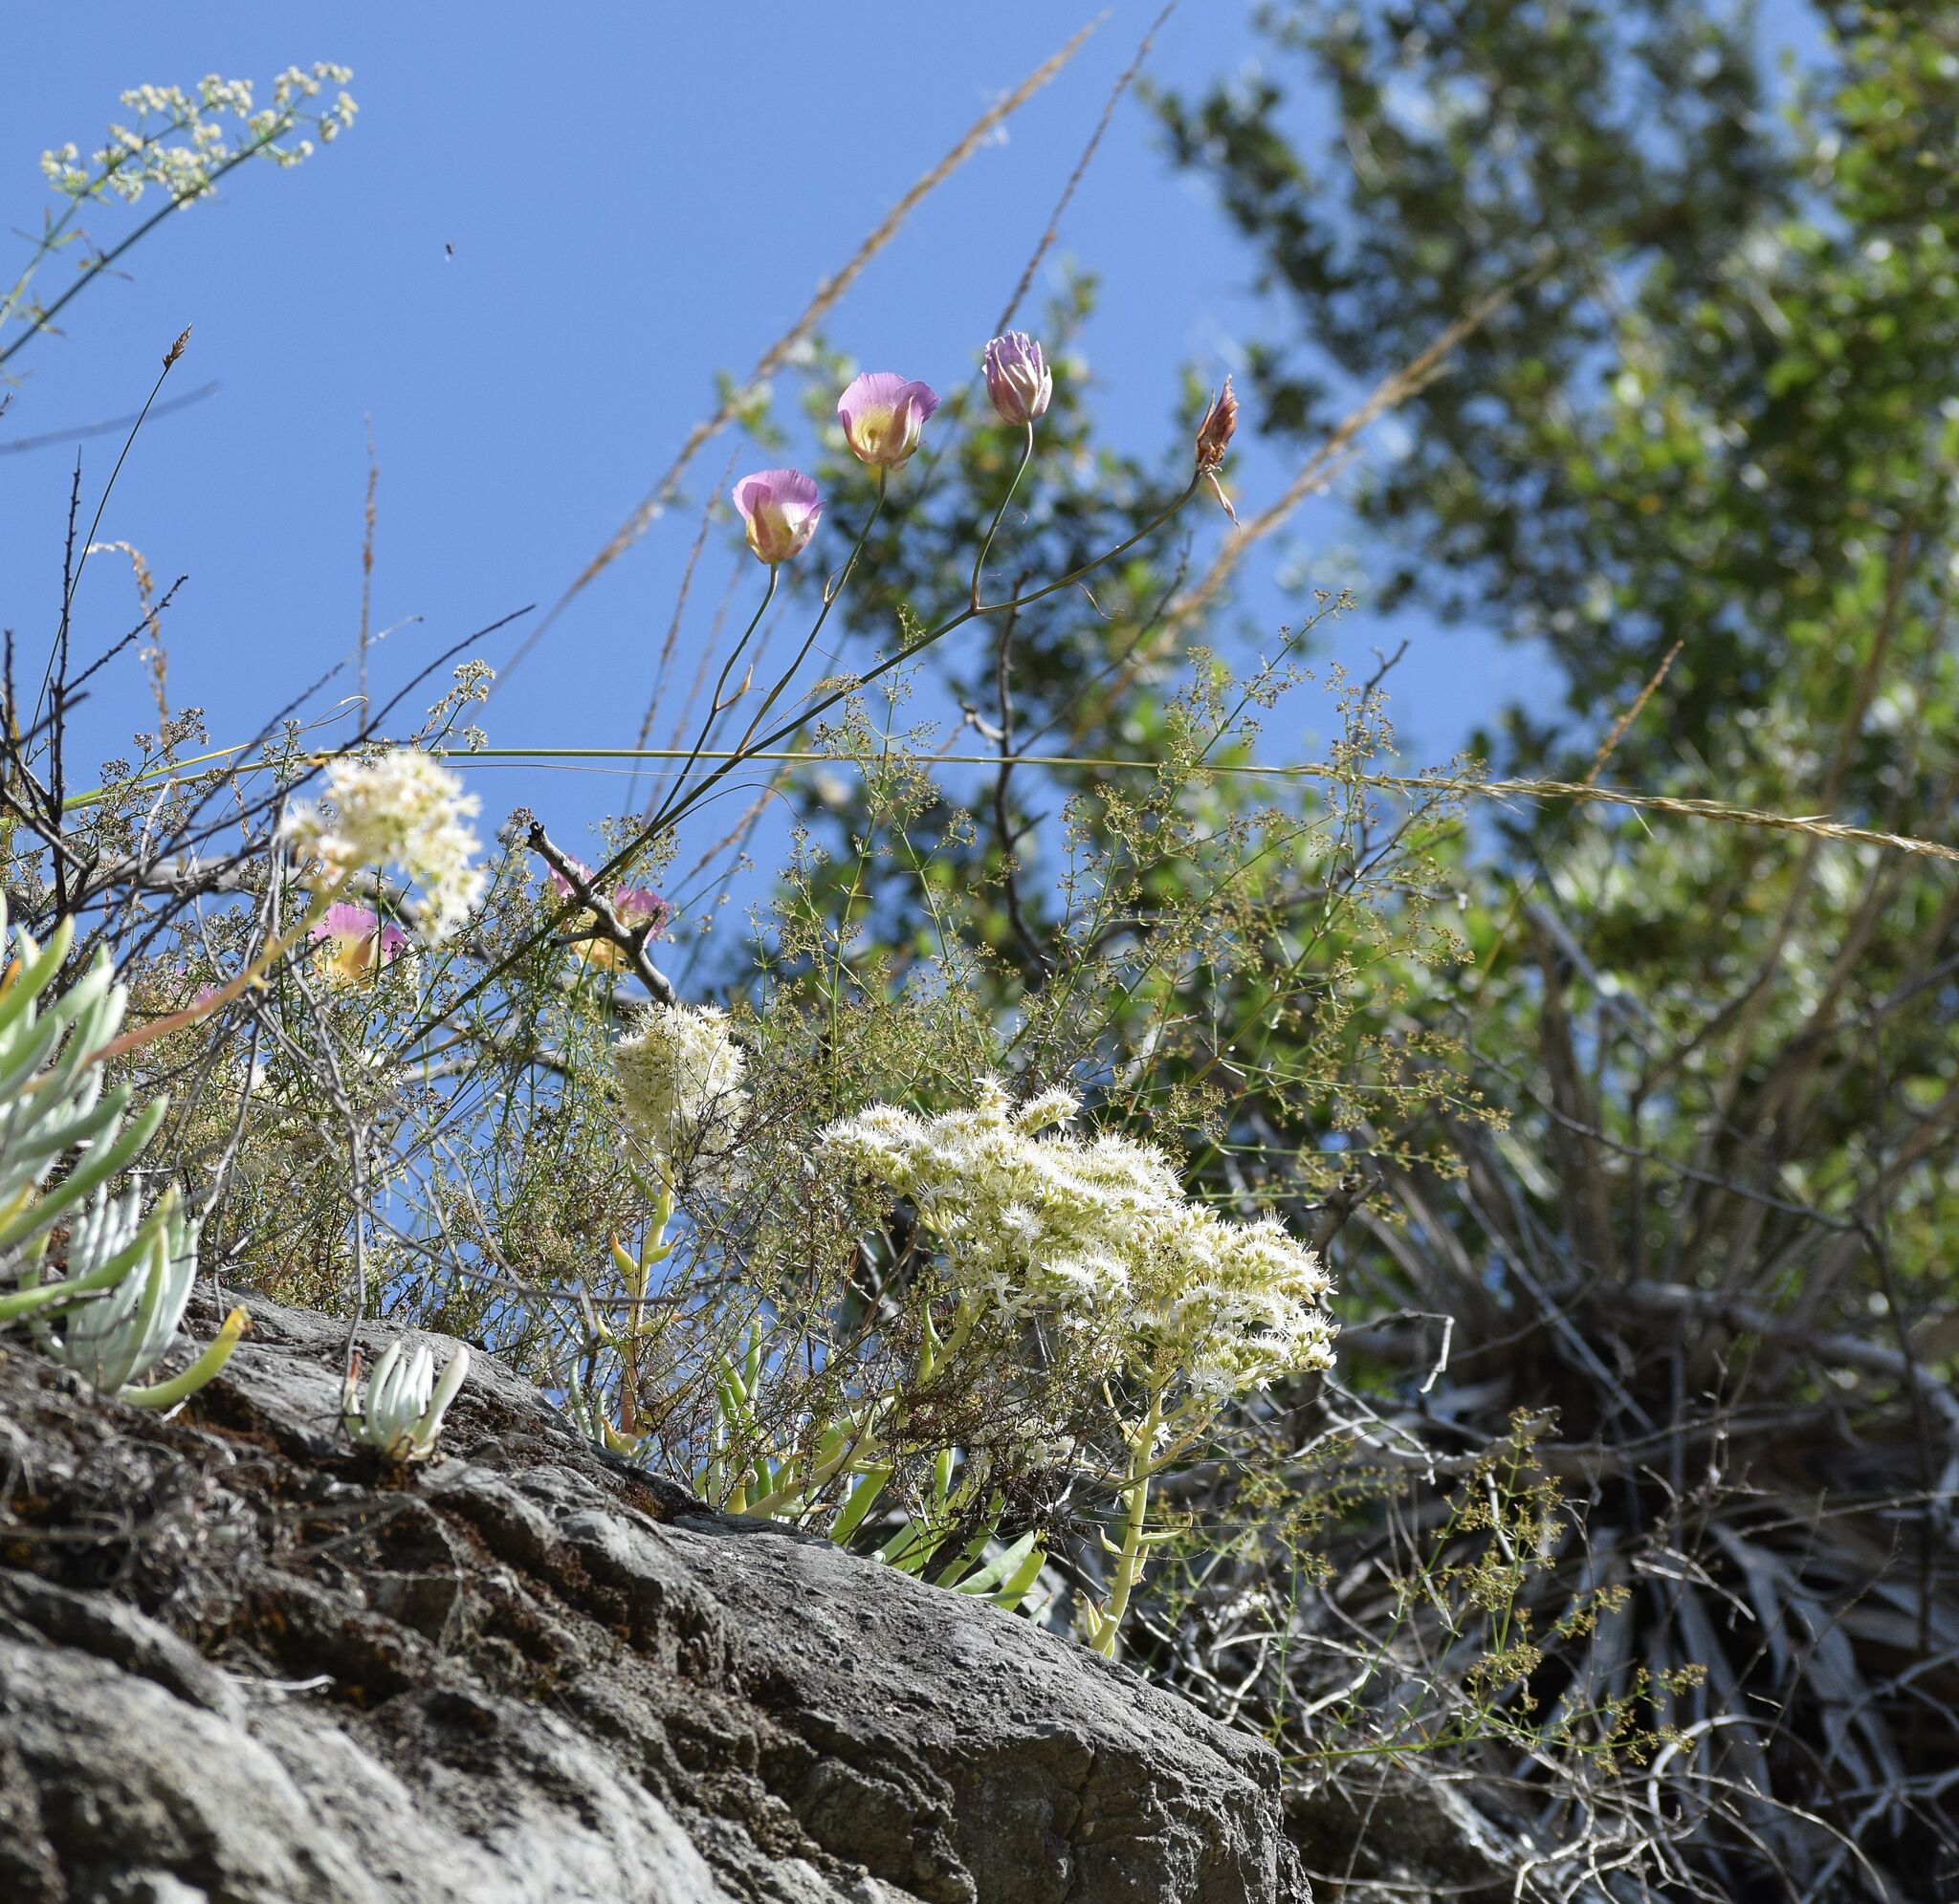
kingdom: Plantae
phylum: Tracheophyta
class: Liliopsida
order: Liliales
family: Liliaceae
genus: Calochortus
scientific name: Calochortus plummerae
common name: Plummer's mariposa-lily
